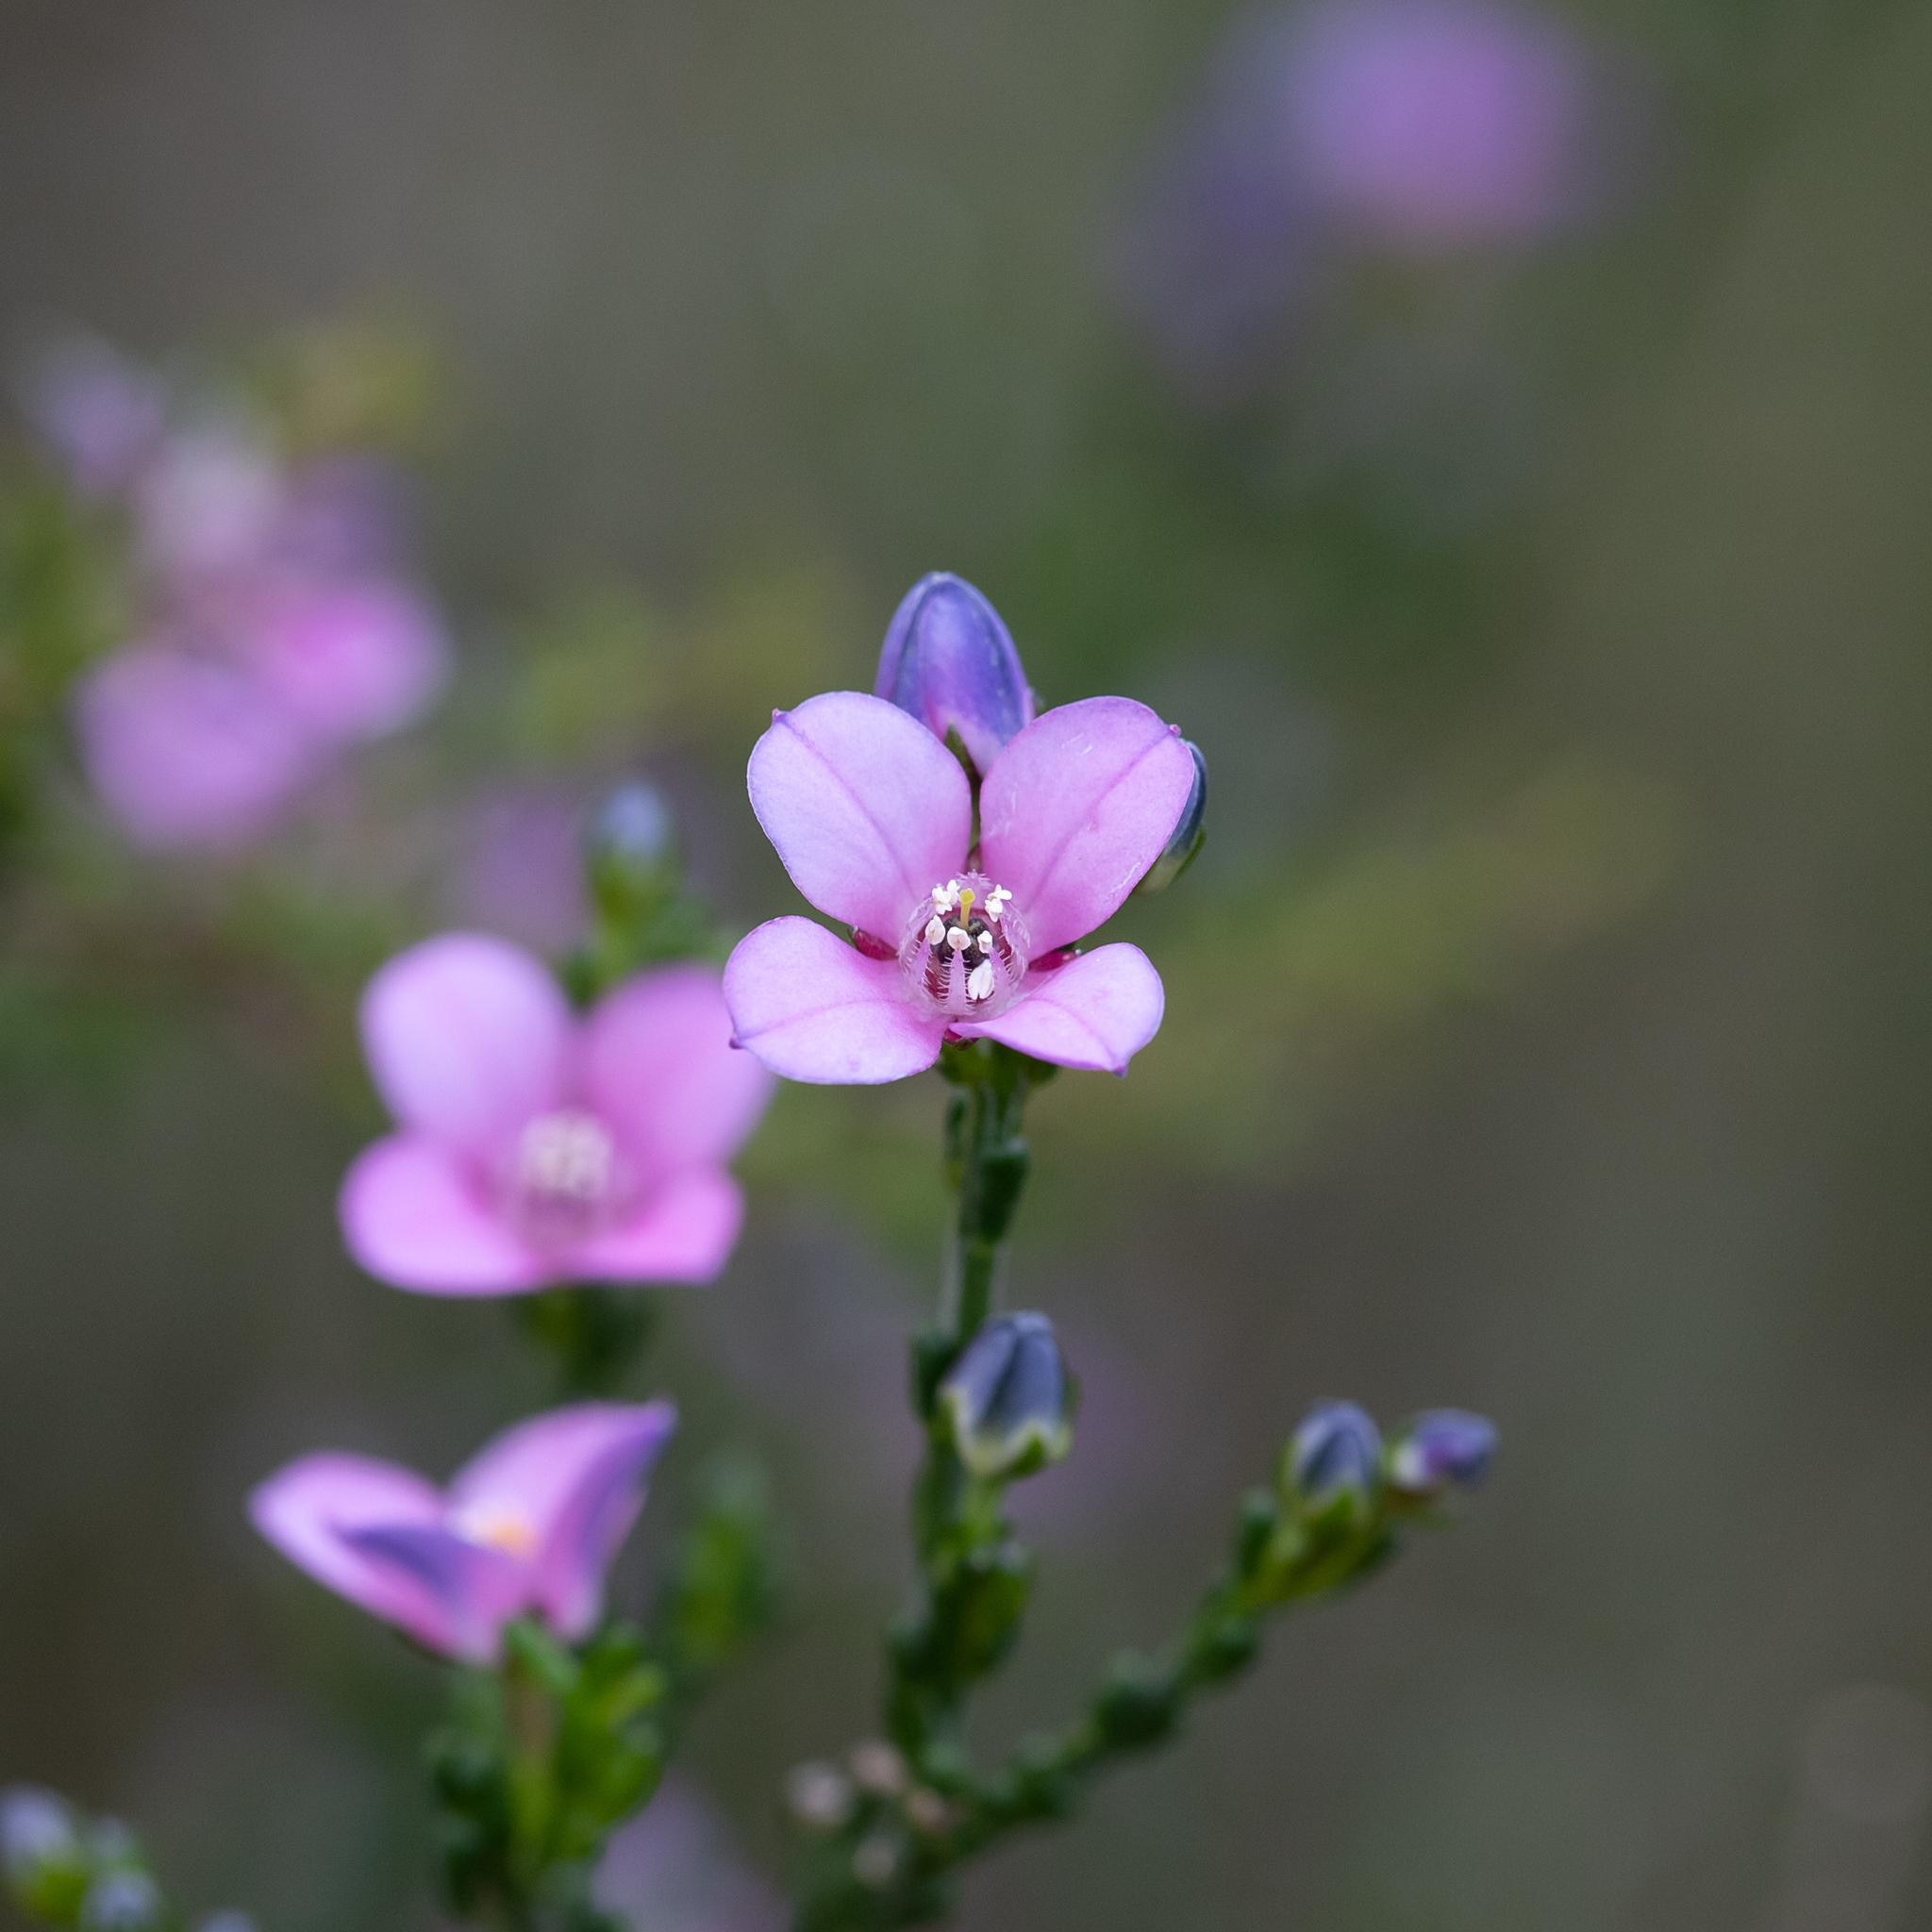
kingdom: Plantae
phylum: Tracheophyta
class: Magnoliopsida
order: Sapindales
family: Rutaceae
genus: Cyanothamnus
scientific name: Cyanothamnus coerulescens
